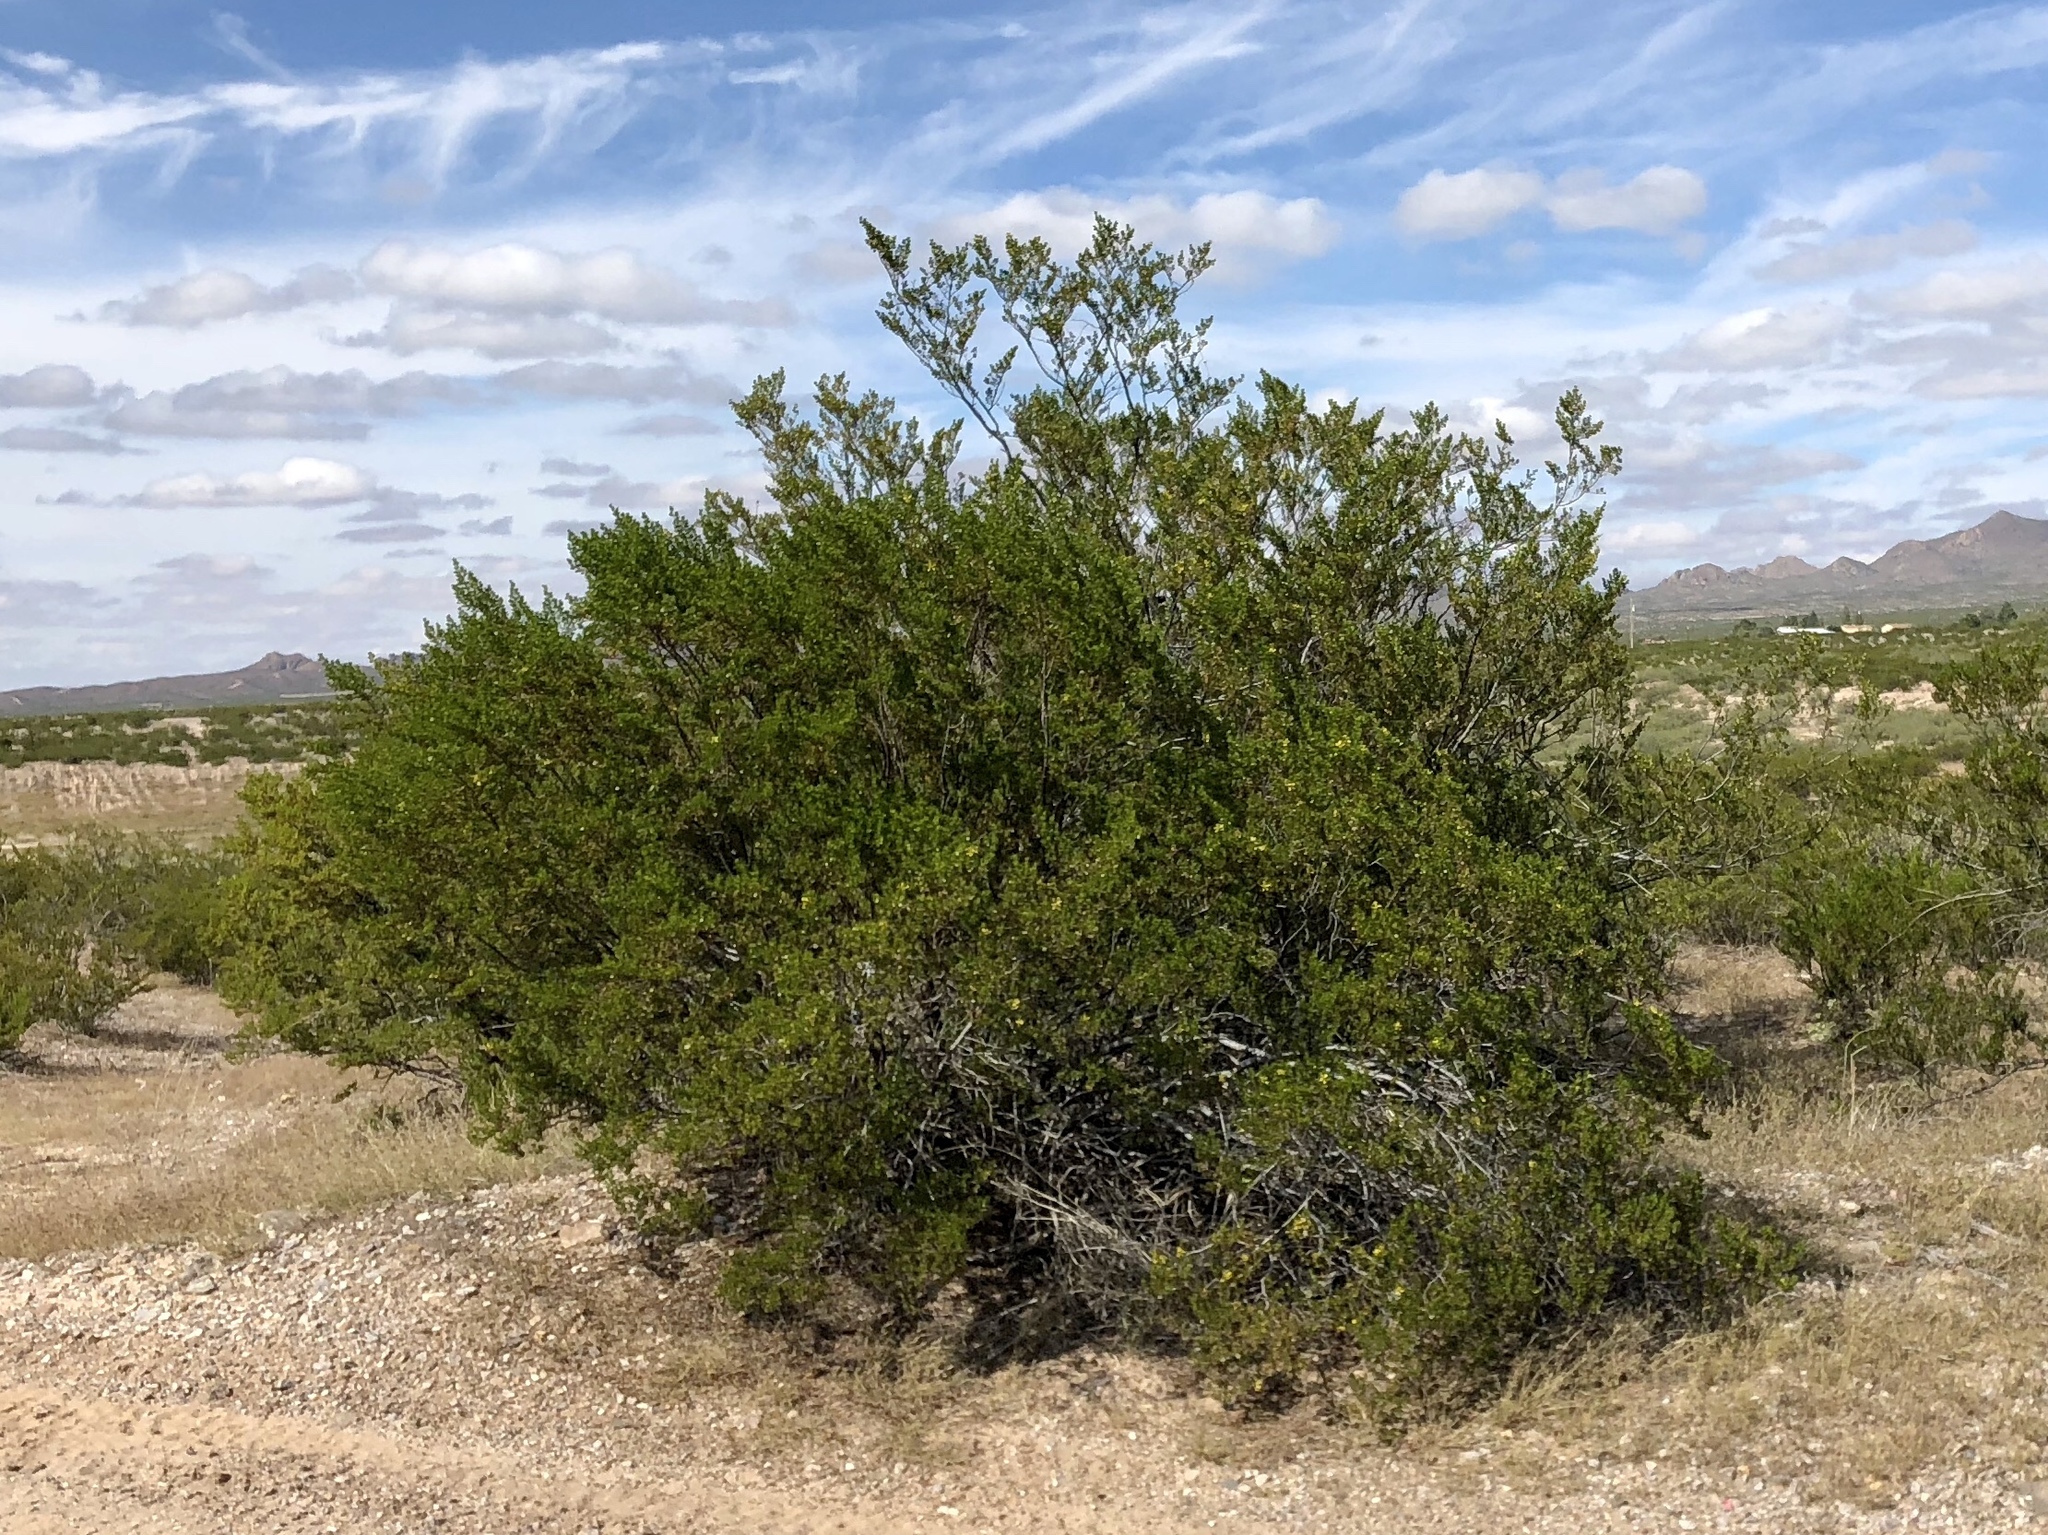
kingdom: Plantae
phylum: Tracheophyta
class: Magnoliopsida
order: Zygophyllales
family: Zygophyllaceae
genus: Larrea
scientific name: Larrea tridentata
